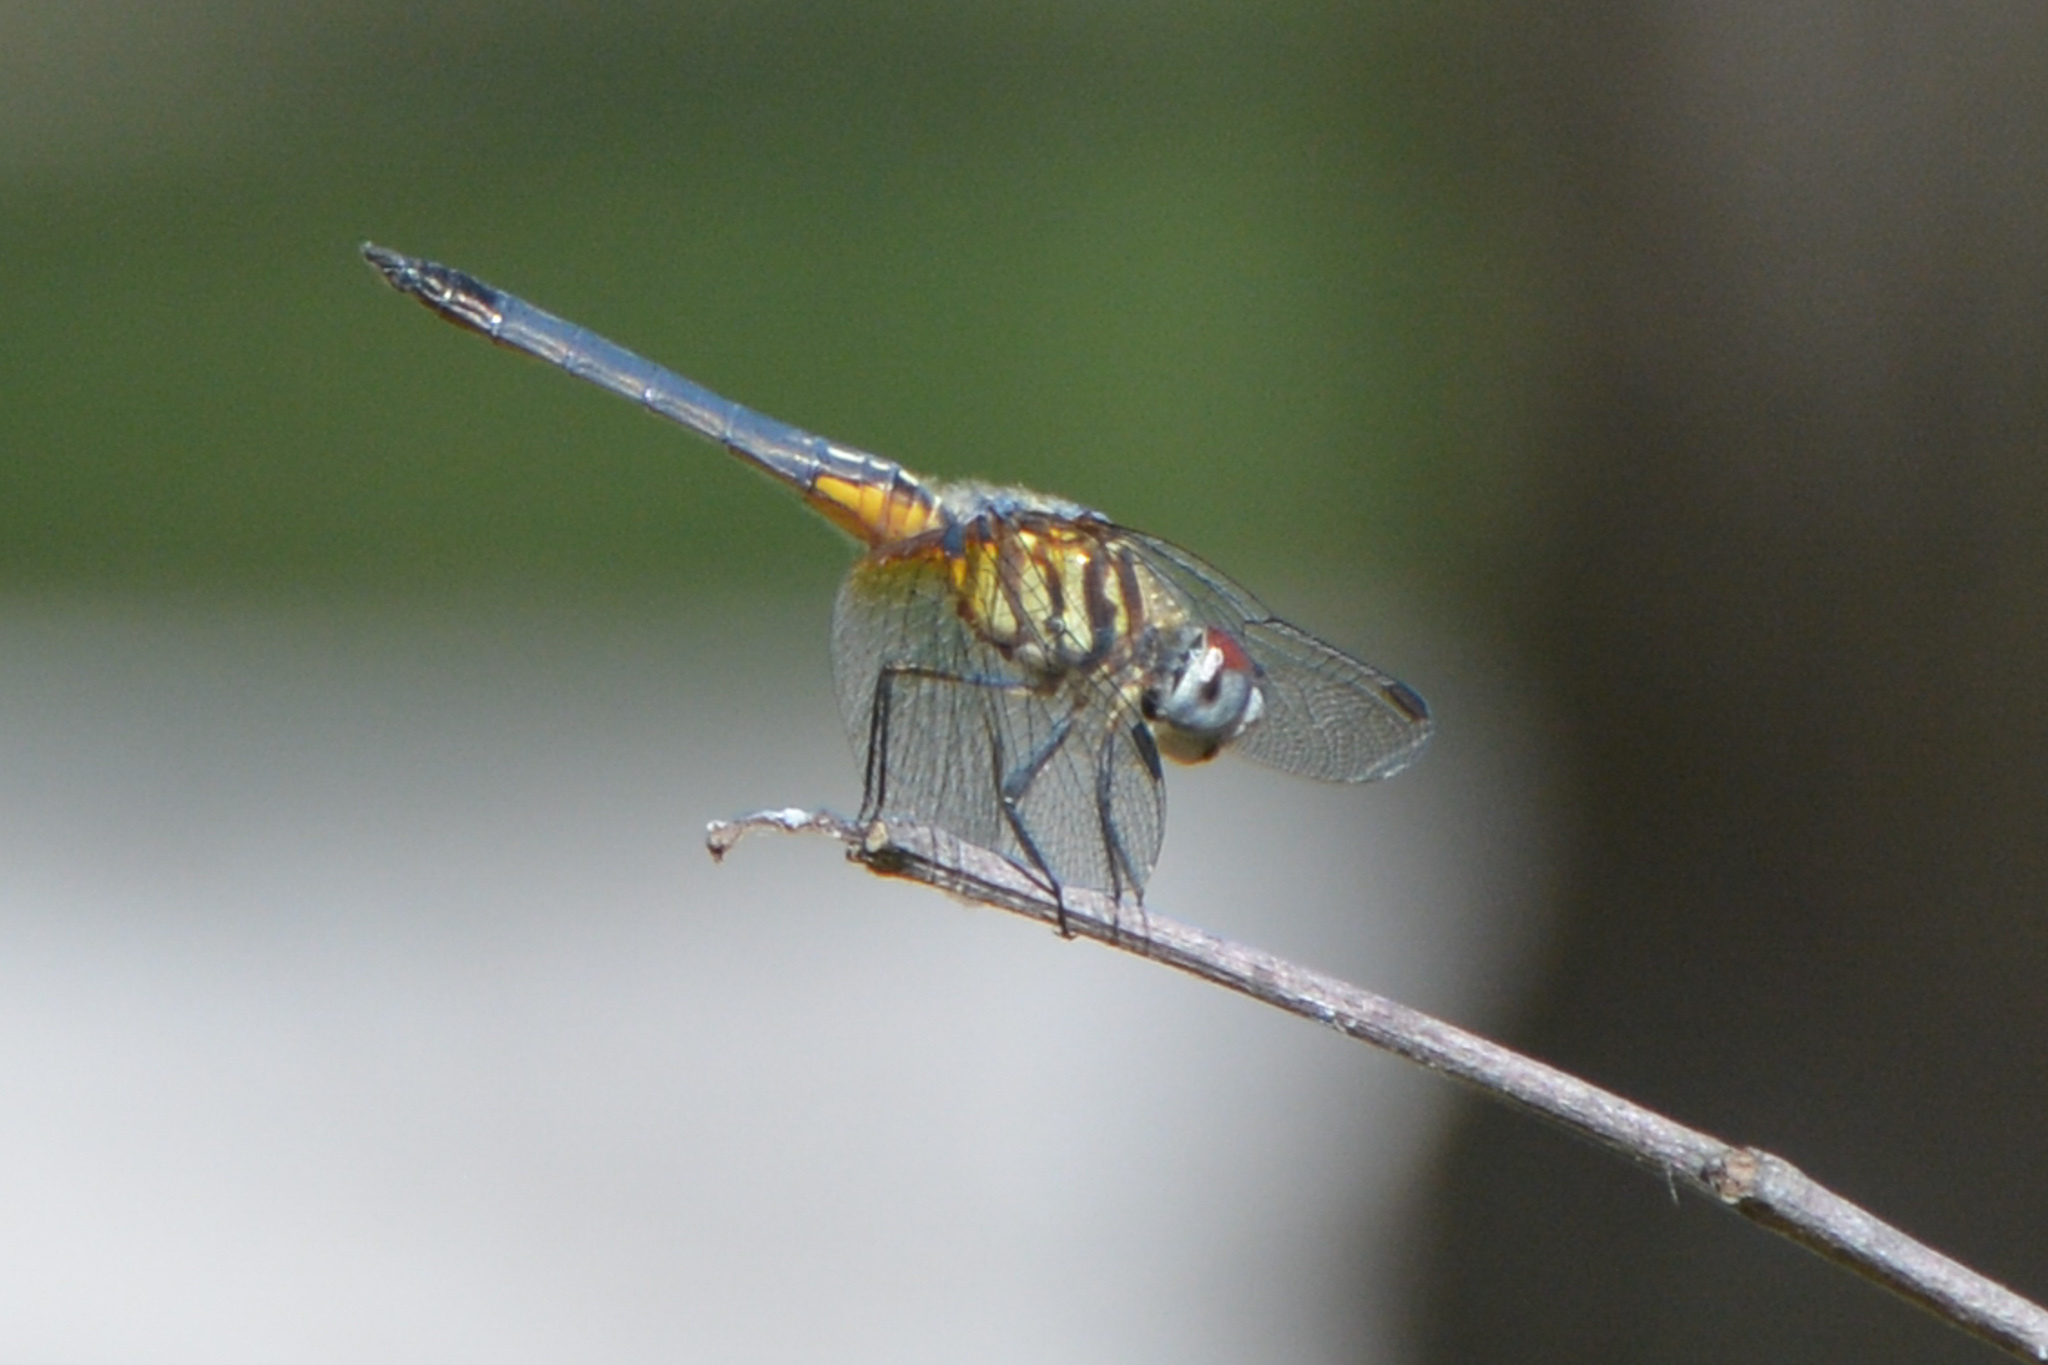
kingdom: Animalia
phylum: Arthropoda
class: Insecta
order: Odonata
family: Libellulidae
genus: Pachydiplax
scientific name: Pachydiplax longipennis
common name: Blue dasher
